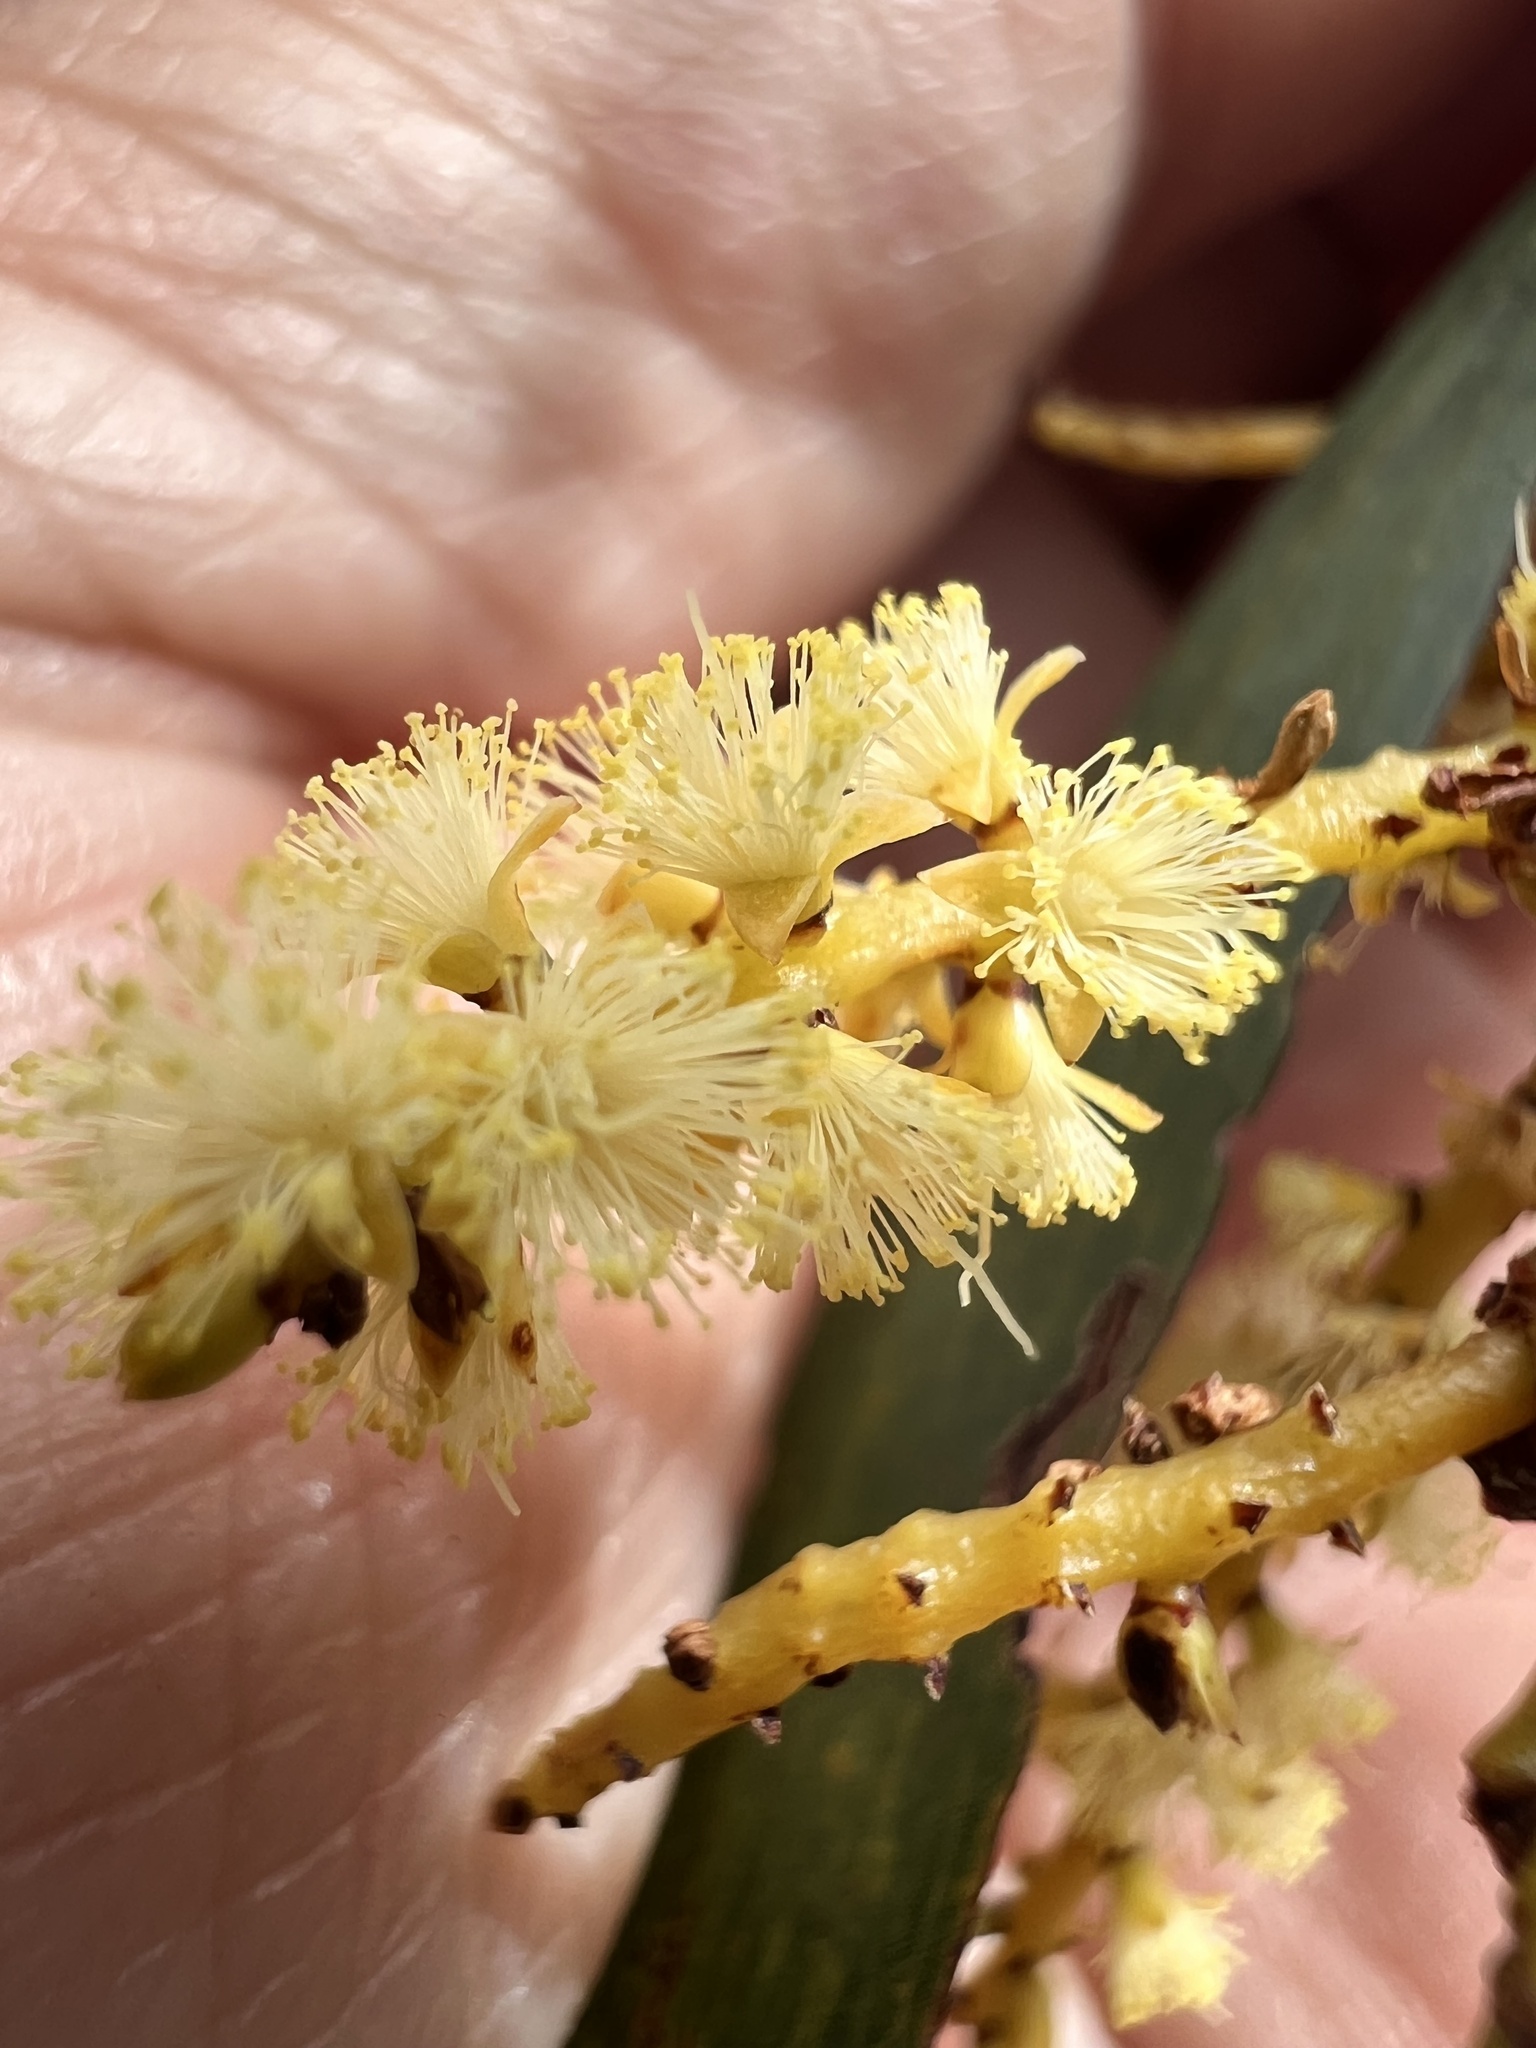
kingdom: Plantae
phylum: Tracheophyta
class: Magnoliopsida
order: Fabales
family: Fabaceae
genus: Acacia
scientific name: Acacia obtusifolia
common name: Stiff-leaf wattle
